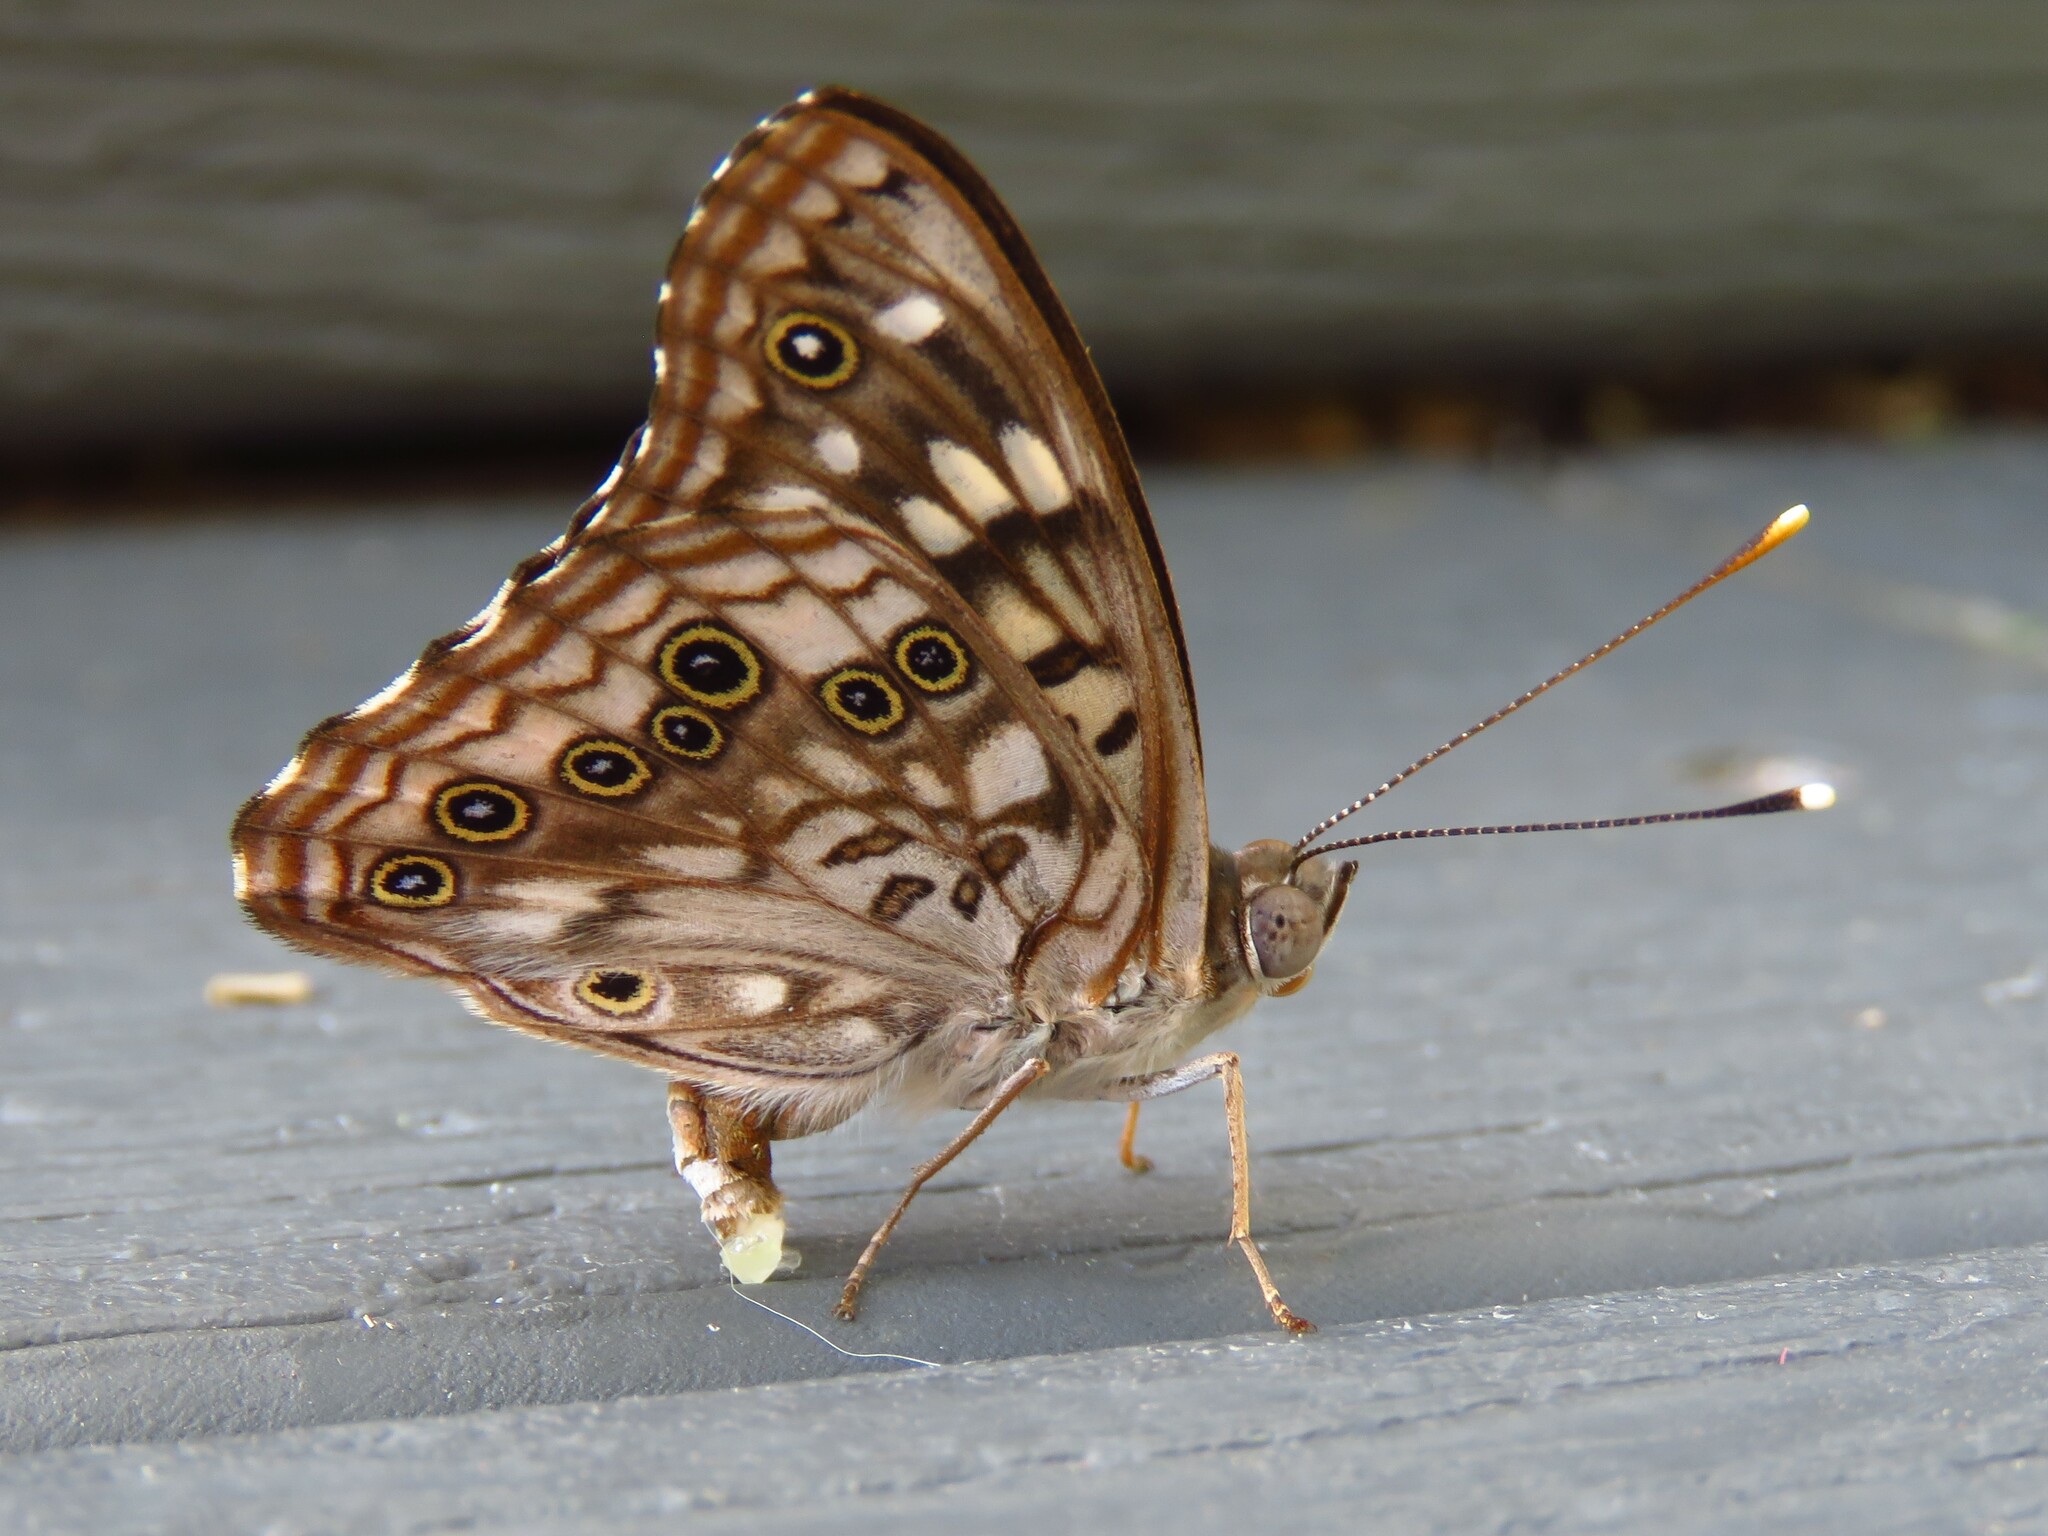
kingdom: Animalia
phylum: Arthropoda
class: Insecta
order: Lepidoptera
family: Nymphalidae
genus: Asterocampa
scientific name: Asterocampa celtis
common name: Hackberry emperor
